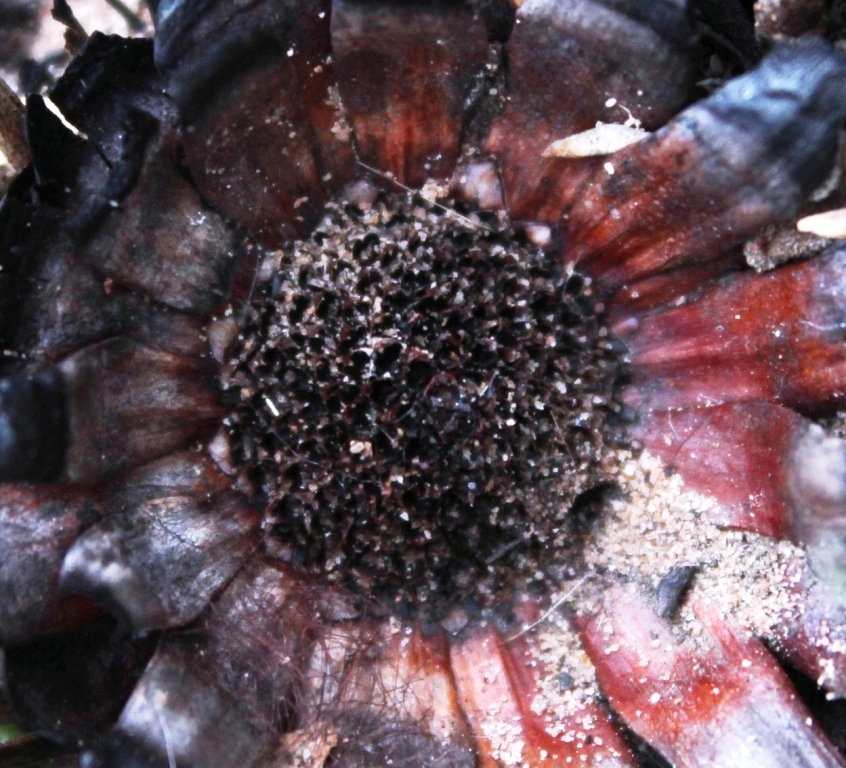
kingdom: Plantae
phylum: Tracheophyta
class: Magnoliopsida
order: Proteales
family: Proteaceae
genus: Protea
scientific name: Protea scabra
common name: Sandpaper-leaf sugarbush
